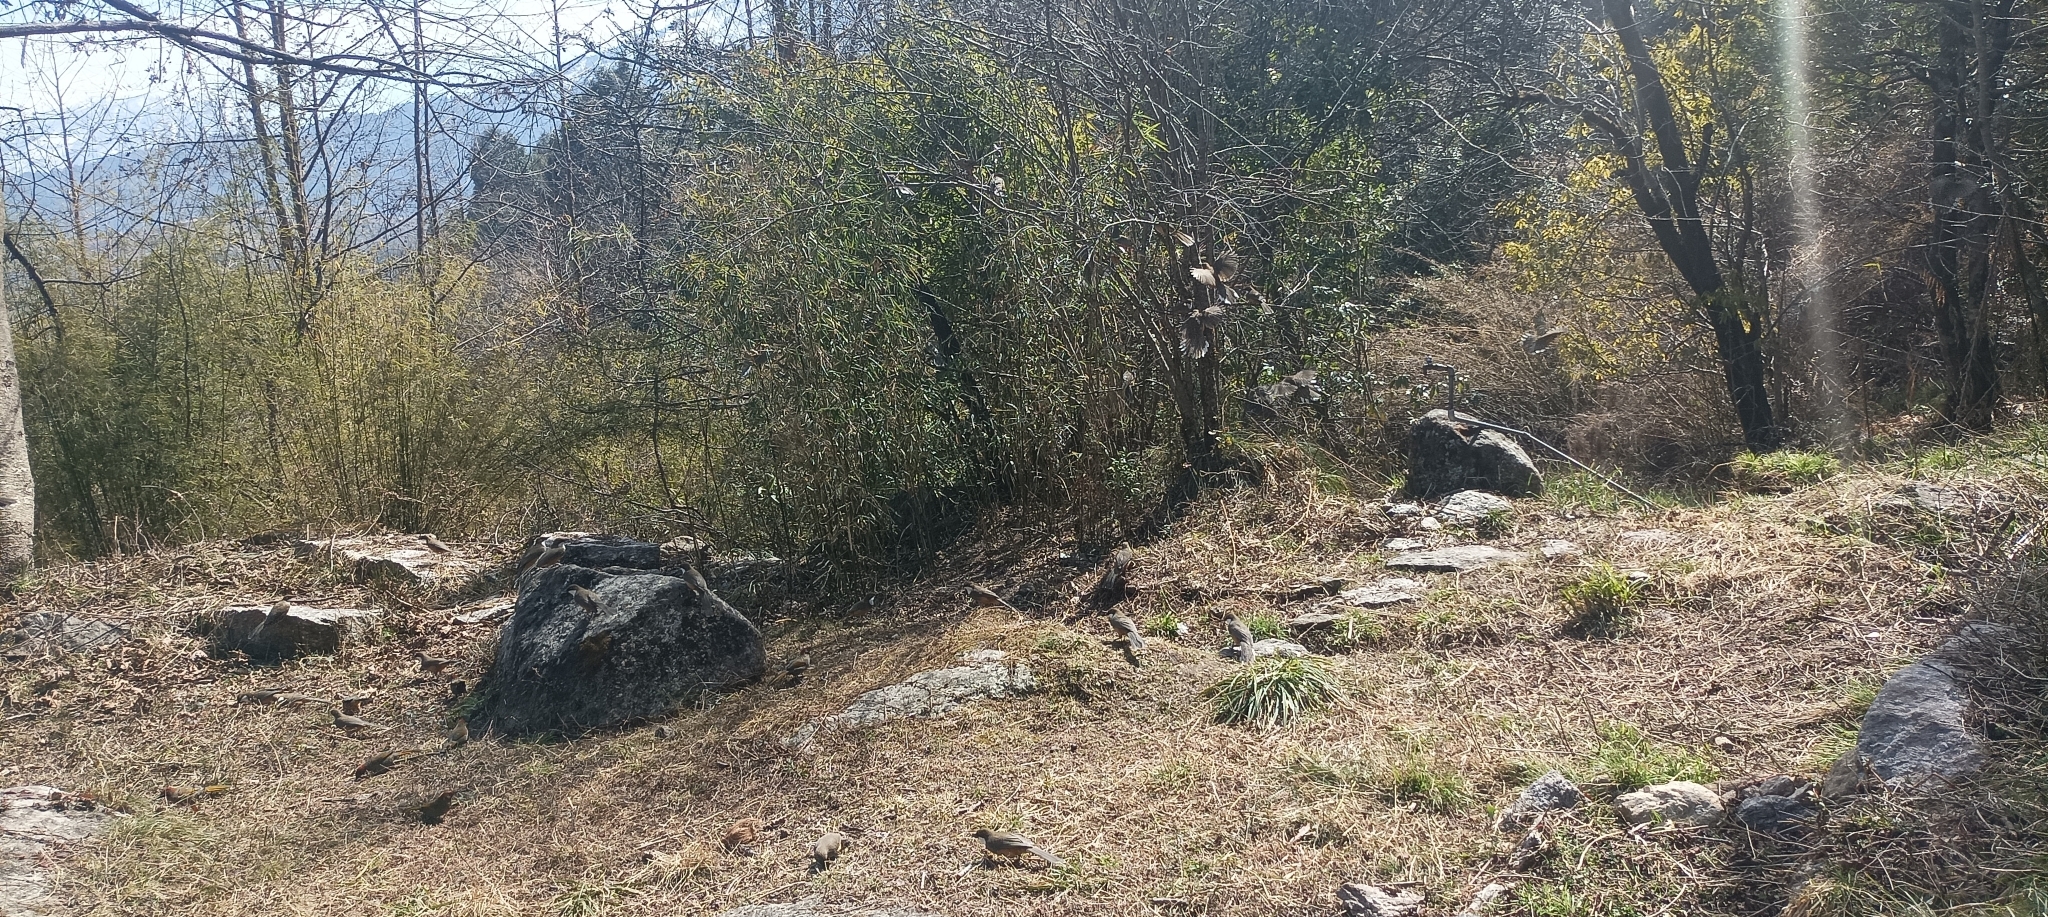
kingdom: Animalia
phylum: Chordata
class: Aves
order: Passeriformes
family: Leiothrichidae
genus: Garrulax
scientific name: Garrulax albogularis
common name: White-throated laughingthrush
